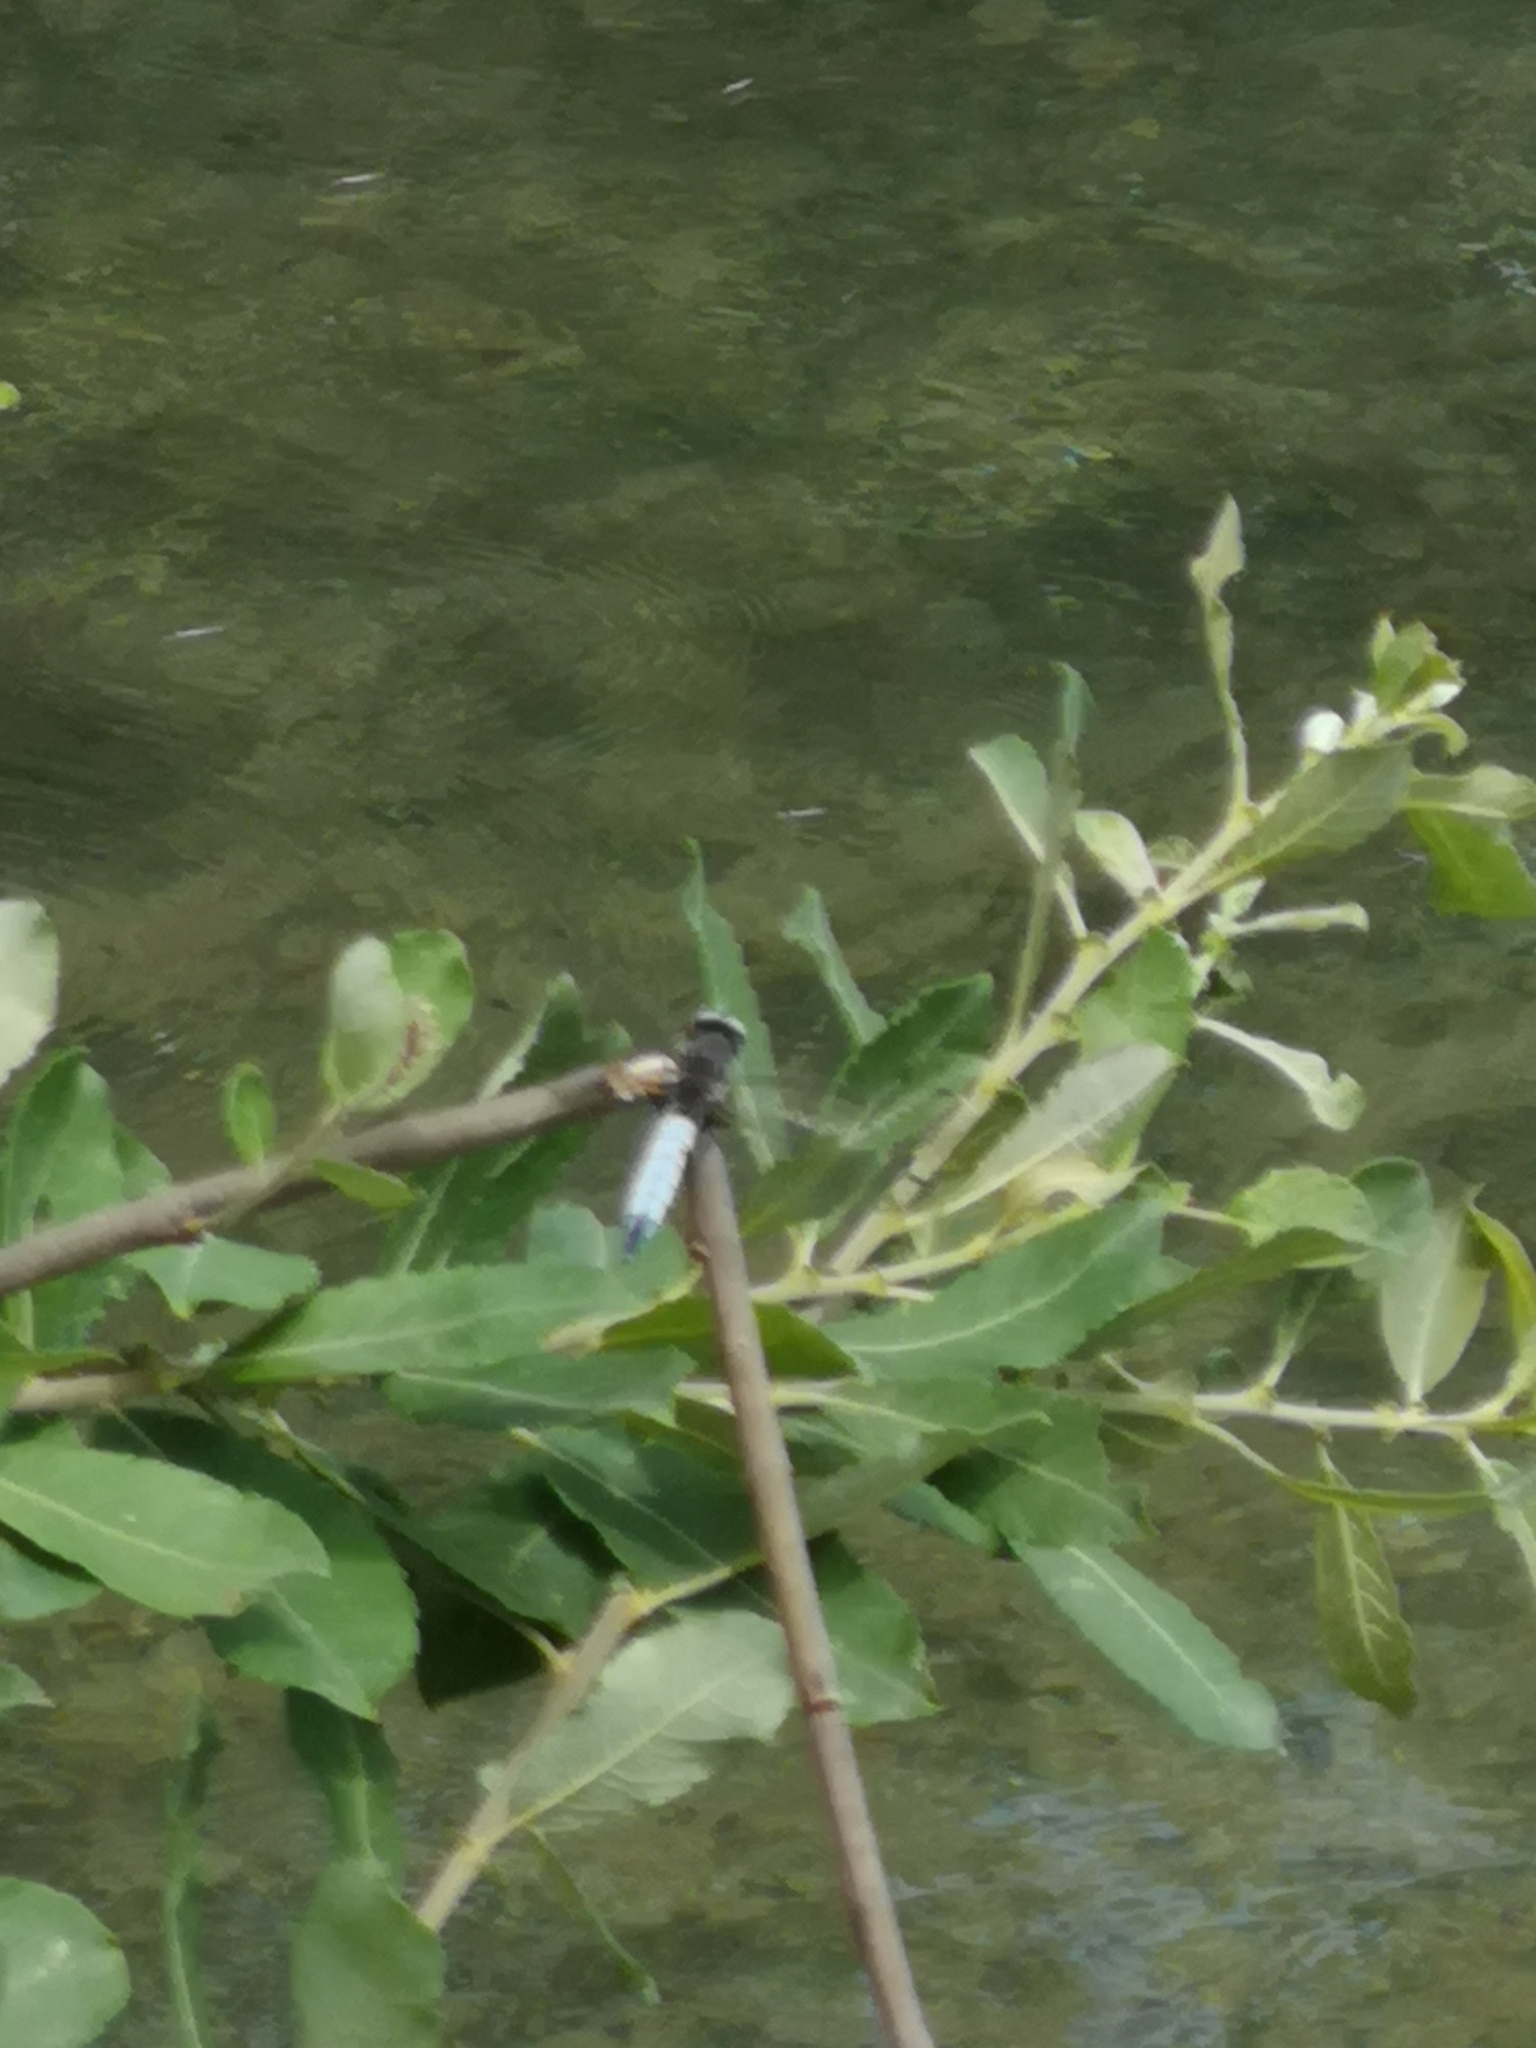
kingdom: Animalia
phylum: Arthropoda
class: Insecta
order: Odonata
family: Libellulidae
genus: Libellula
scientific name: Libellula fulva
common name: Blue chaser
